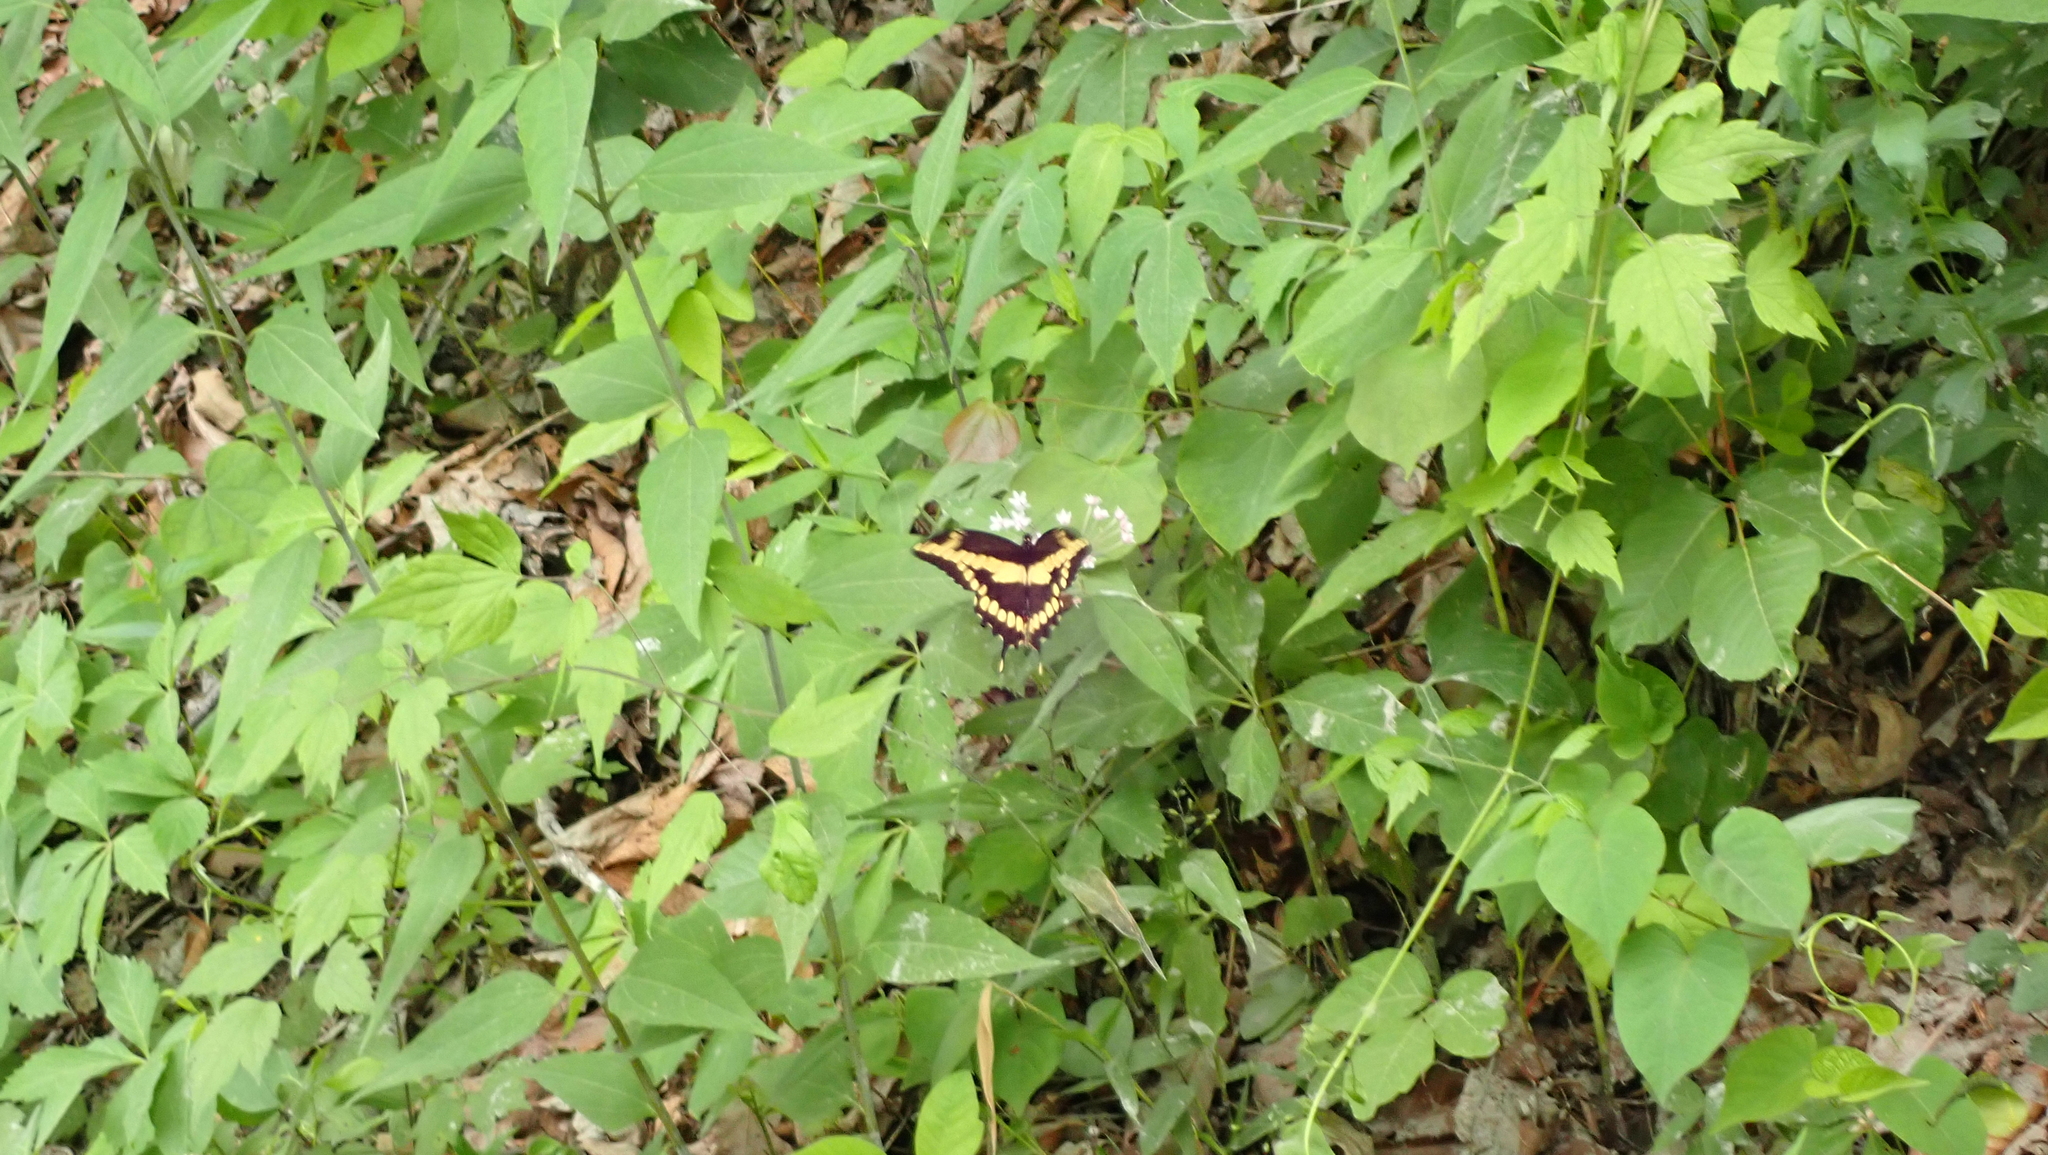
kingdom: Animalia
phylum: Arthropoda
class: Insecta
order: Lepidoptera
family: Papilionidae
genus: Papilio
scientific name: Papilio cresphontes
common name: Giant swallowtail
